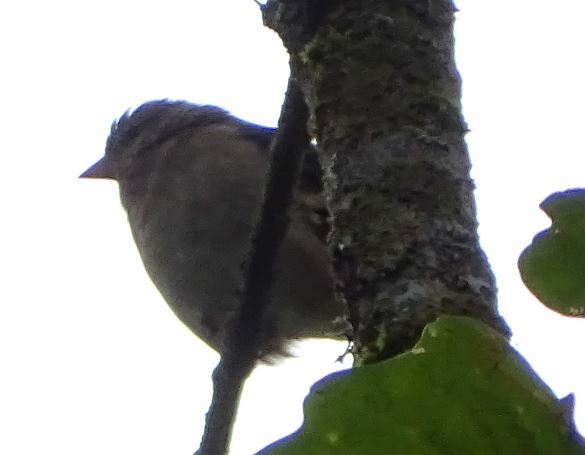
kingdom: Animalia
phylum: Chordata
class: Aves
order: Passeriformes
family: Fringillidae
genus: Fringilla
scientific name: Fringilla coelebs
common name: Common chaffinch
